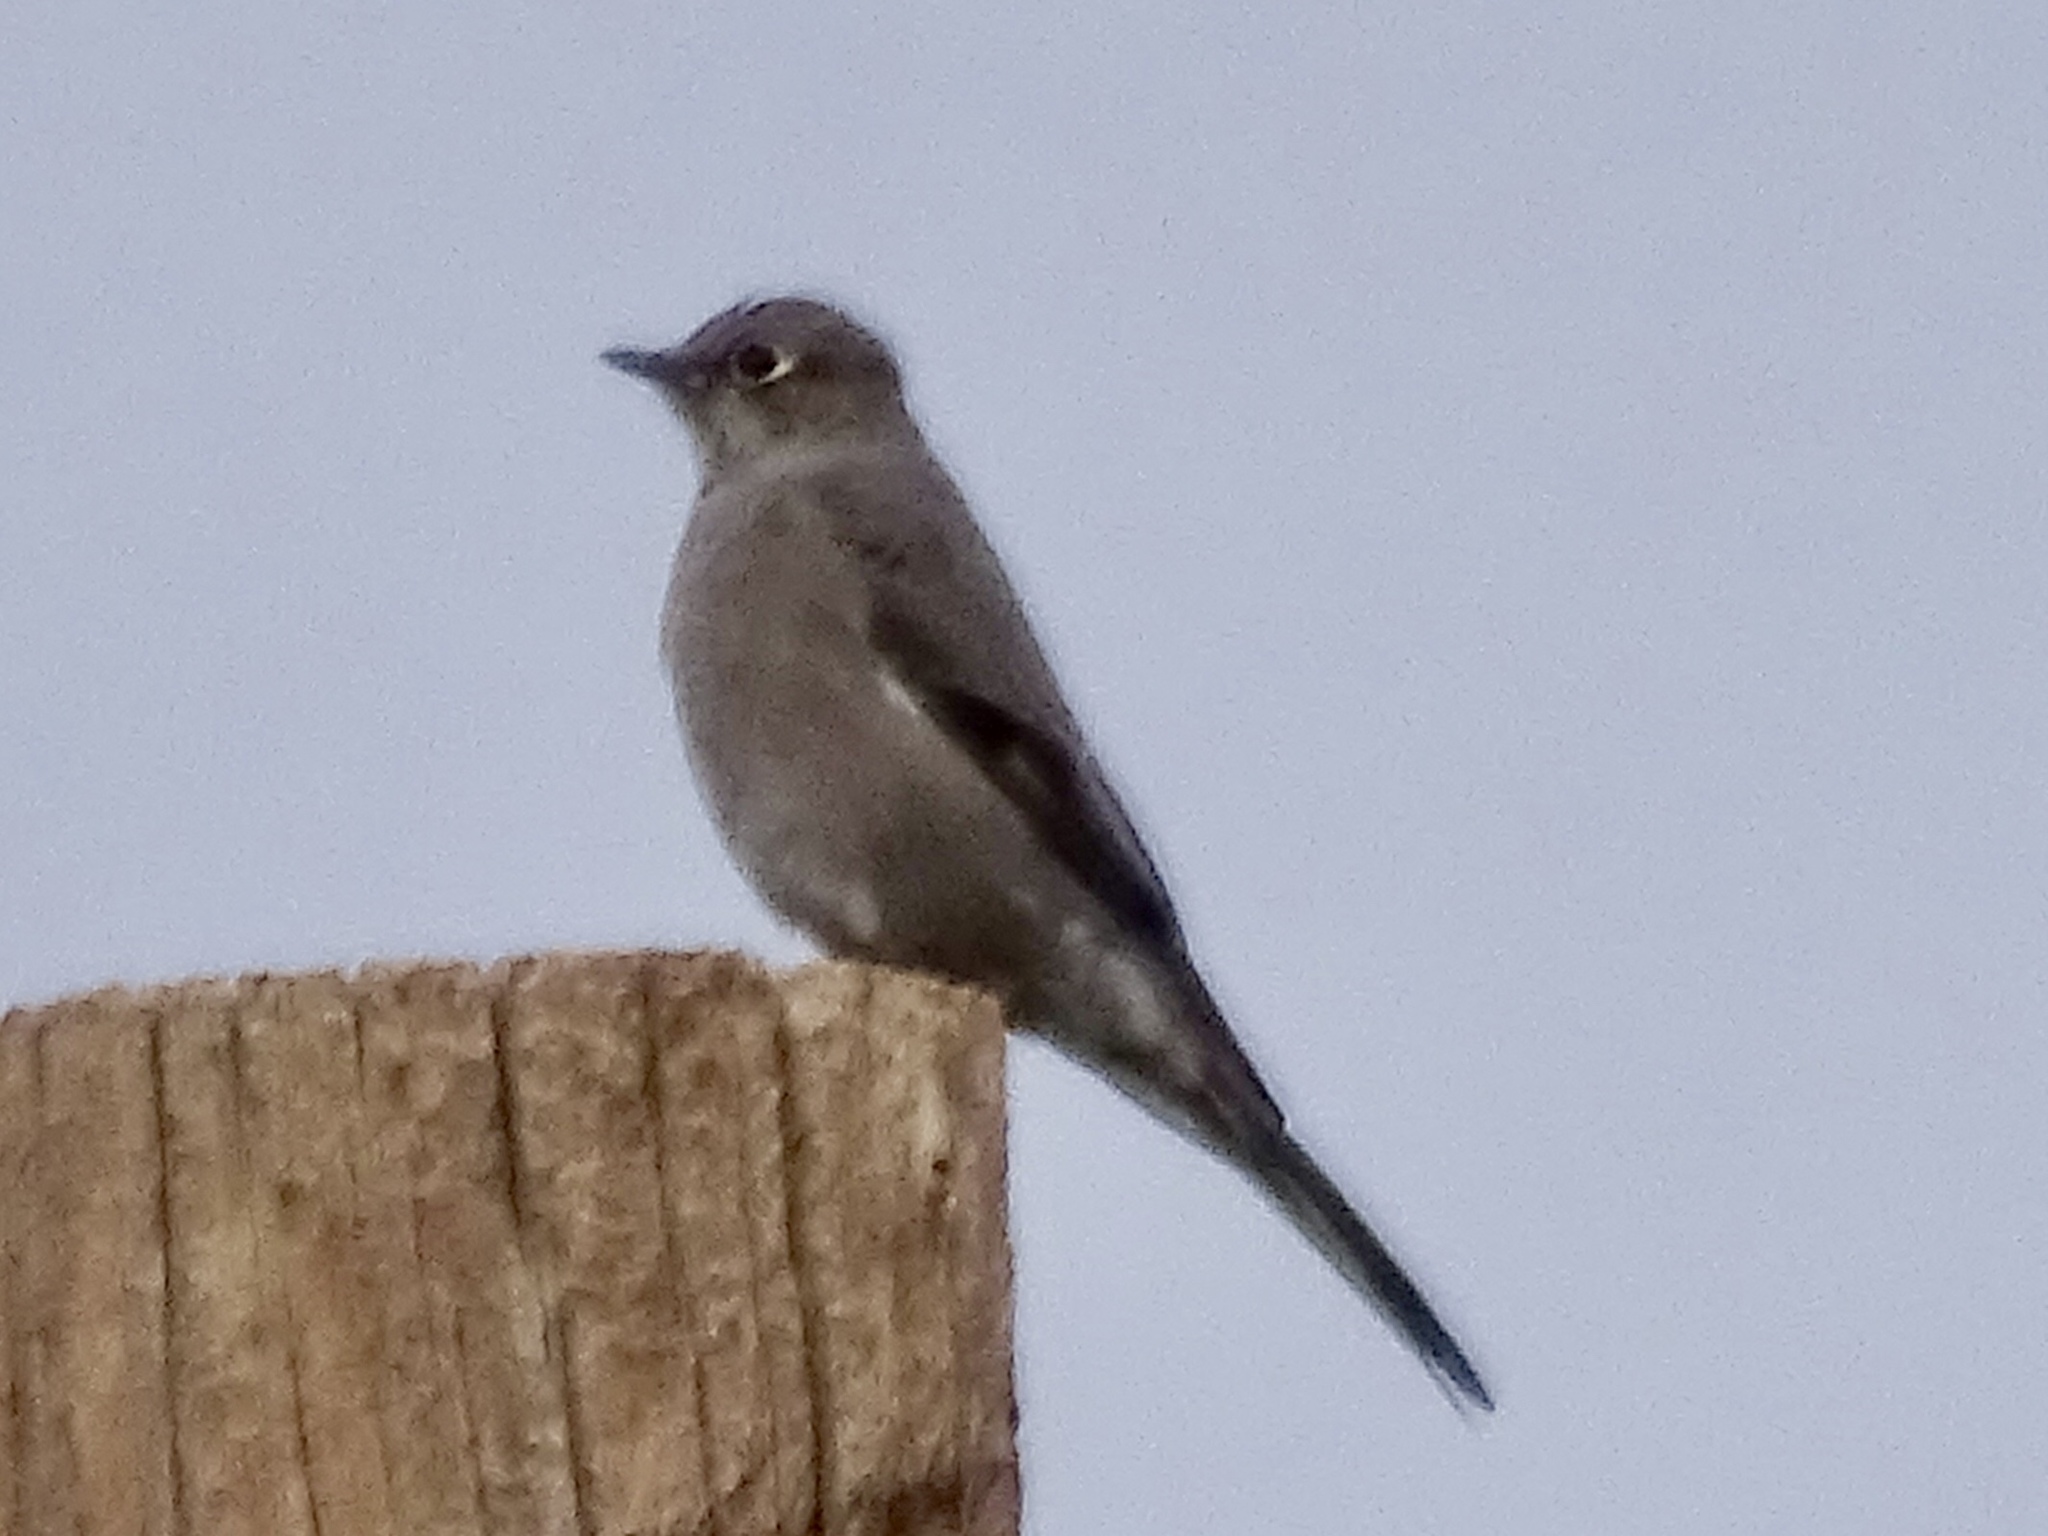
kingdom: Animalia
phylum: Chordata
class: Aves
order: Passeriformes
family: Turdidae
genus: Myadestes
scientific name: Myadestes townsendi
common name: Townsend's solitaire
